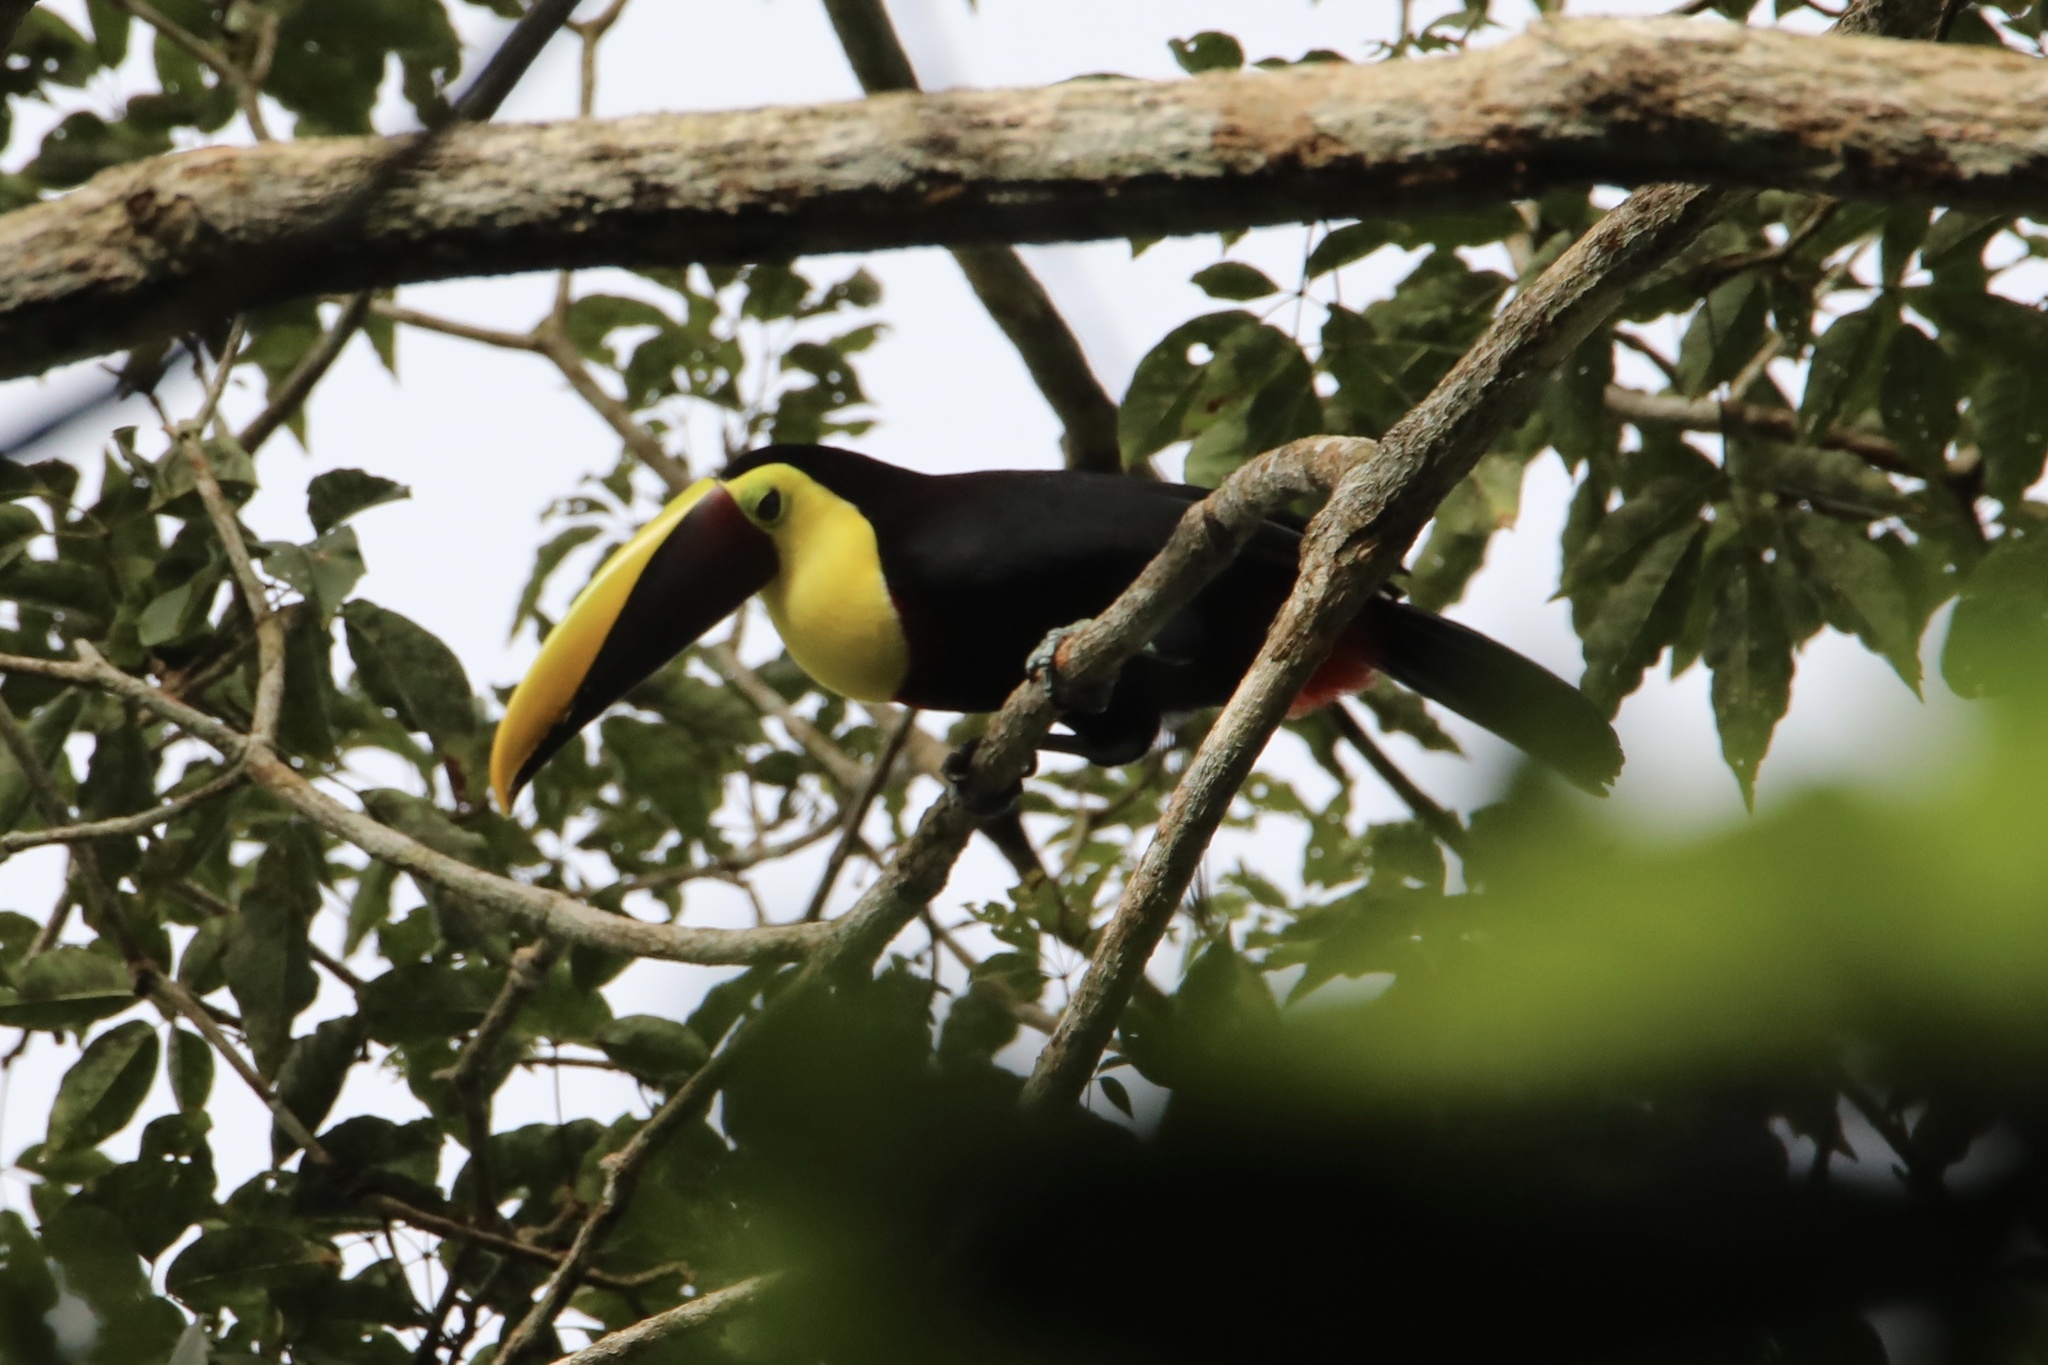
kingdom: Animalia
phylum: Chordata
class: Aves
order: Piciformes
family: Ramphastidae
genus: Ramphastos
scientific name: Ramphastos ambiguus
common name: Yellow-throated toucan
